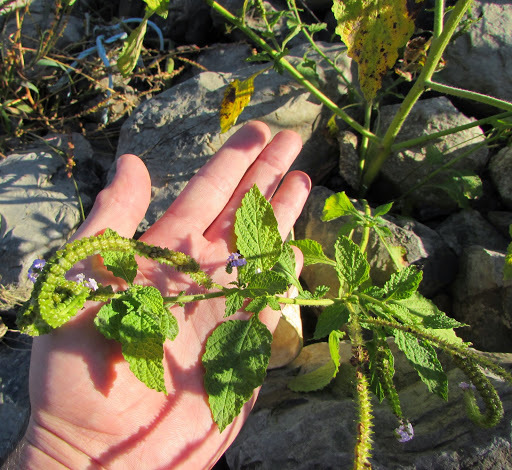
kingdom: Plantae
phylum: Tracheophyta
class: Magnoliopsida
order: Boraginales
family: Heliotropiaceae
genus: Heliotropium
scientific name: Heliotropium indicum
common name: Indian heliotrope
